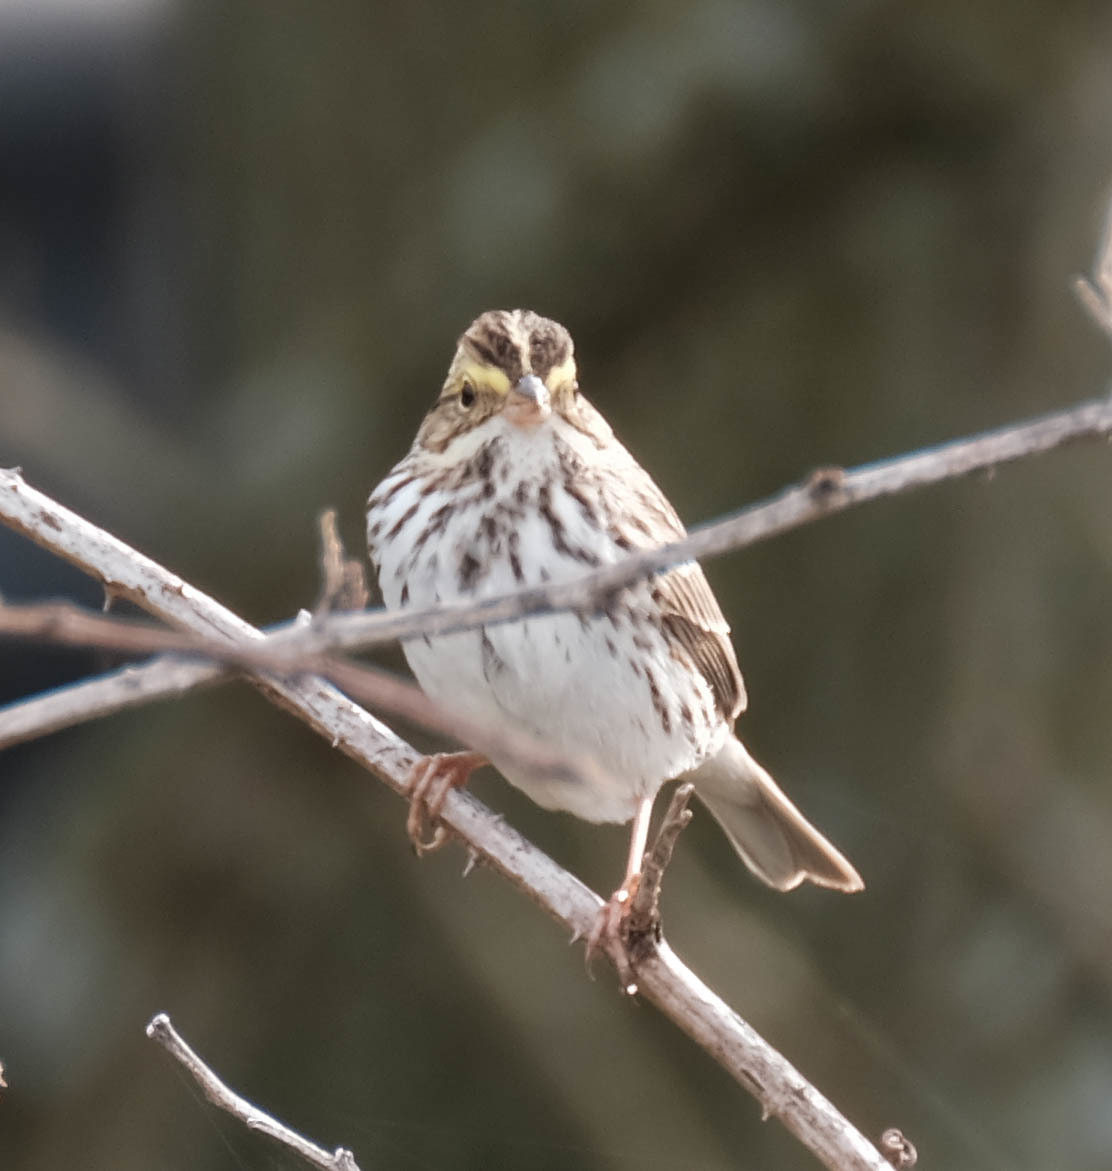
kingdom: Animalia
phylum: Chordata
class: Aves
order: Passeriformes
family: Passerellidae
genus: Passerculus
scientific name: Passerculus sandwichensis
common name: Savannah sparrow
